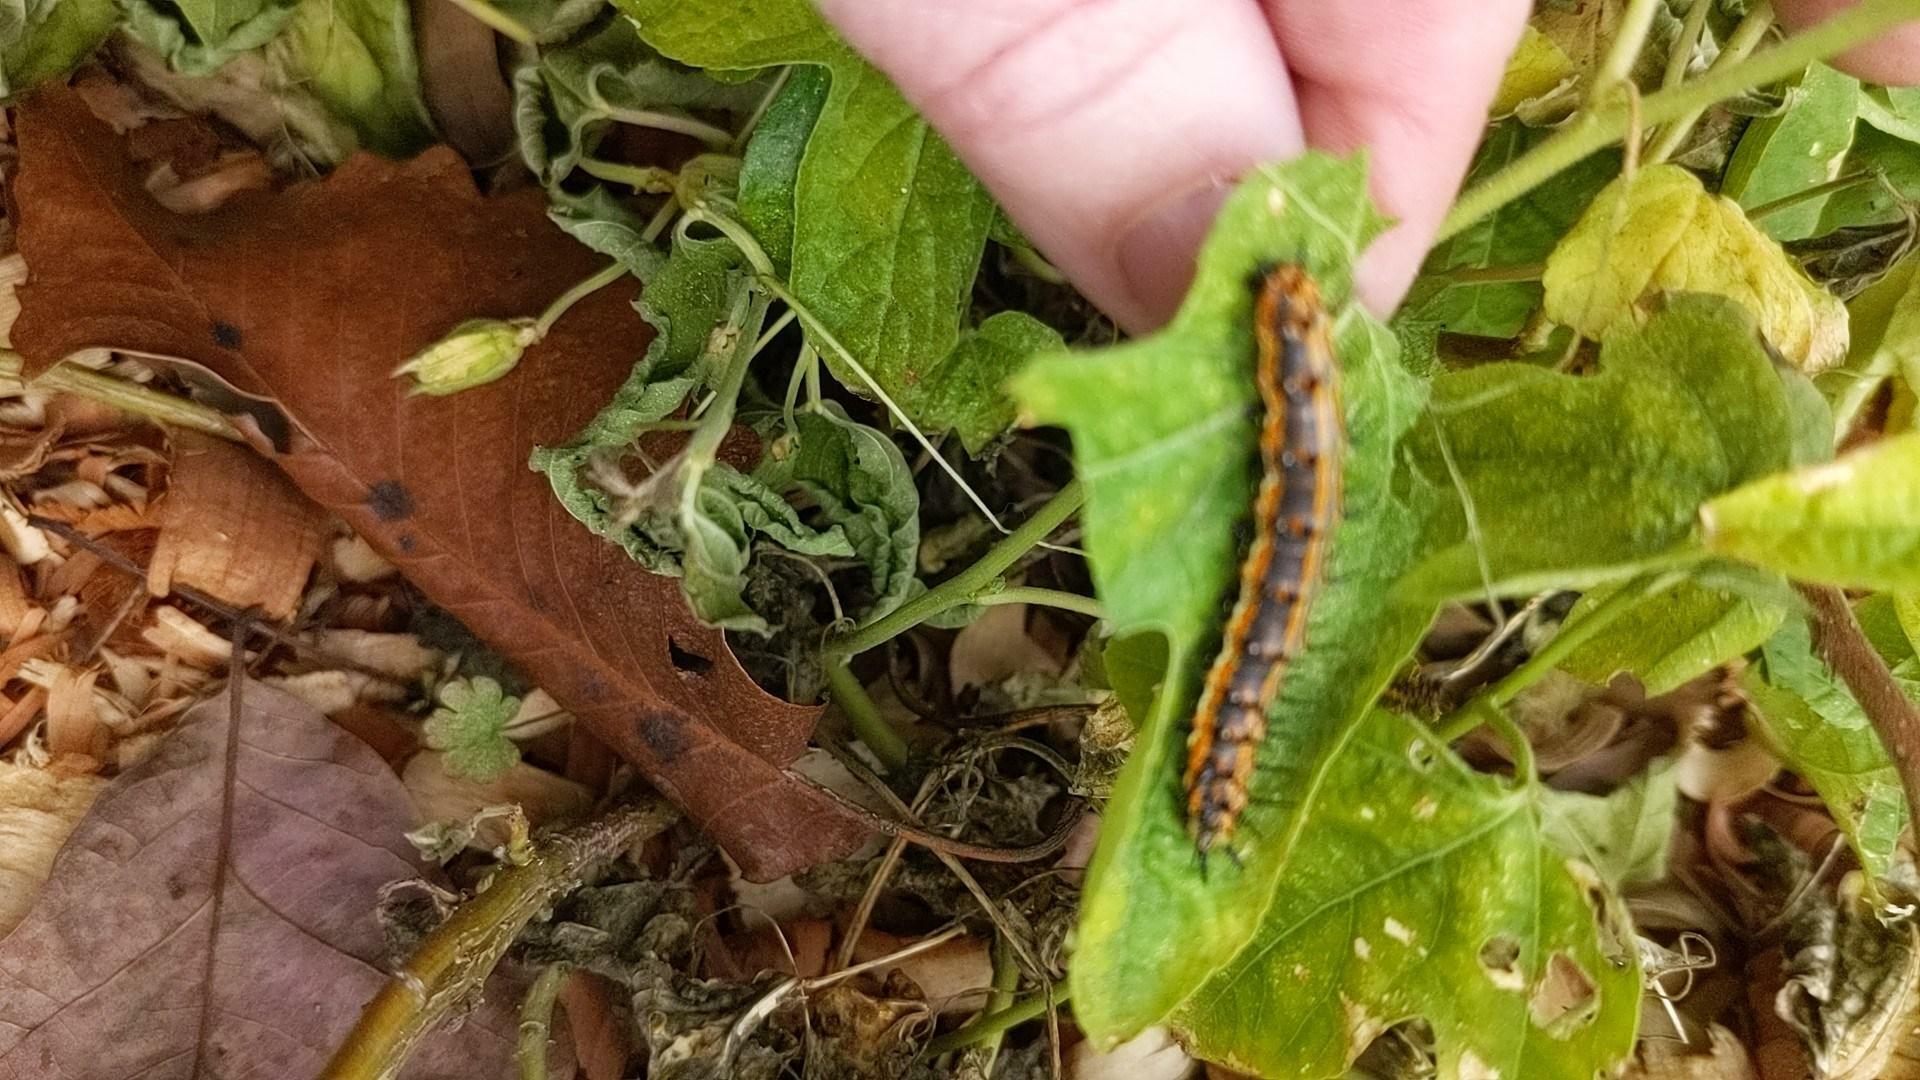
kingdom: Animalia
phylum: Arthropoda
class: Insecta
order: Lepidoptera
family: Nymphalidae
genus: Dione
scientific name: Dione vanillae
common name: Gulf fritillary
